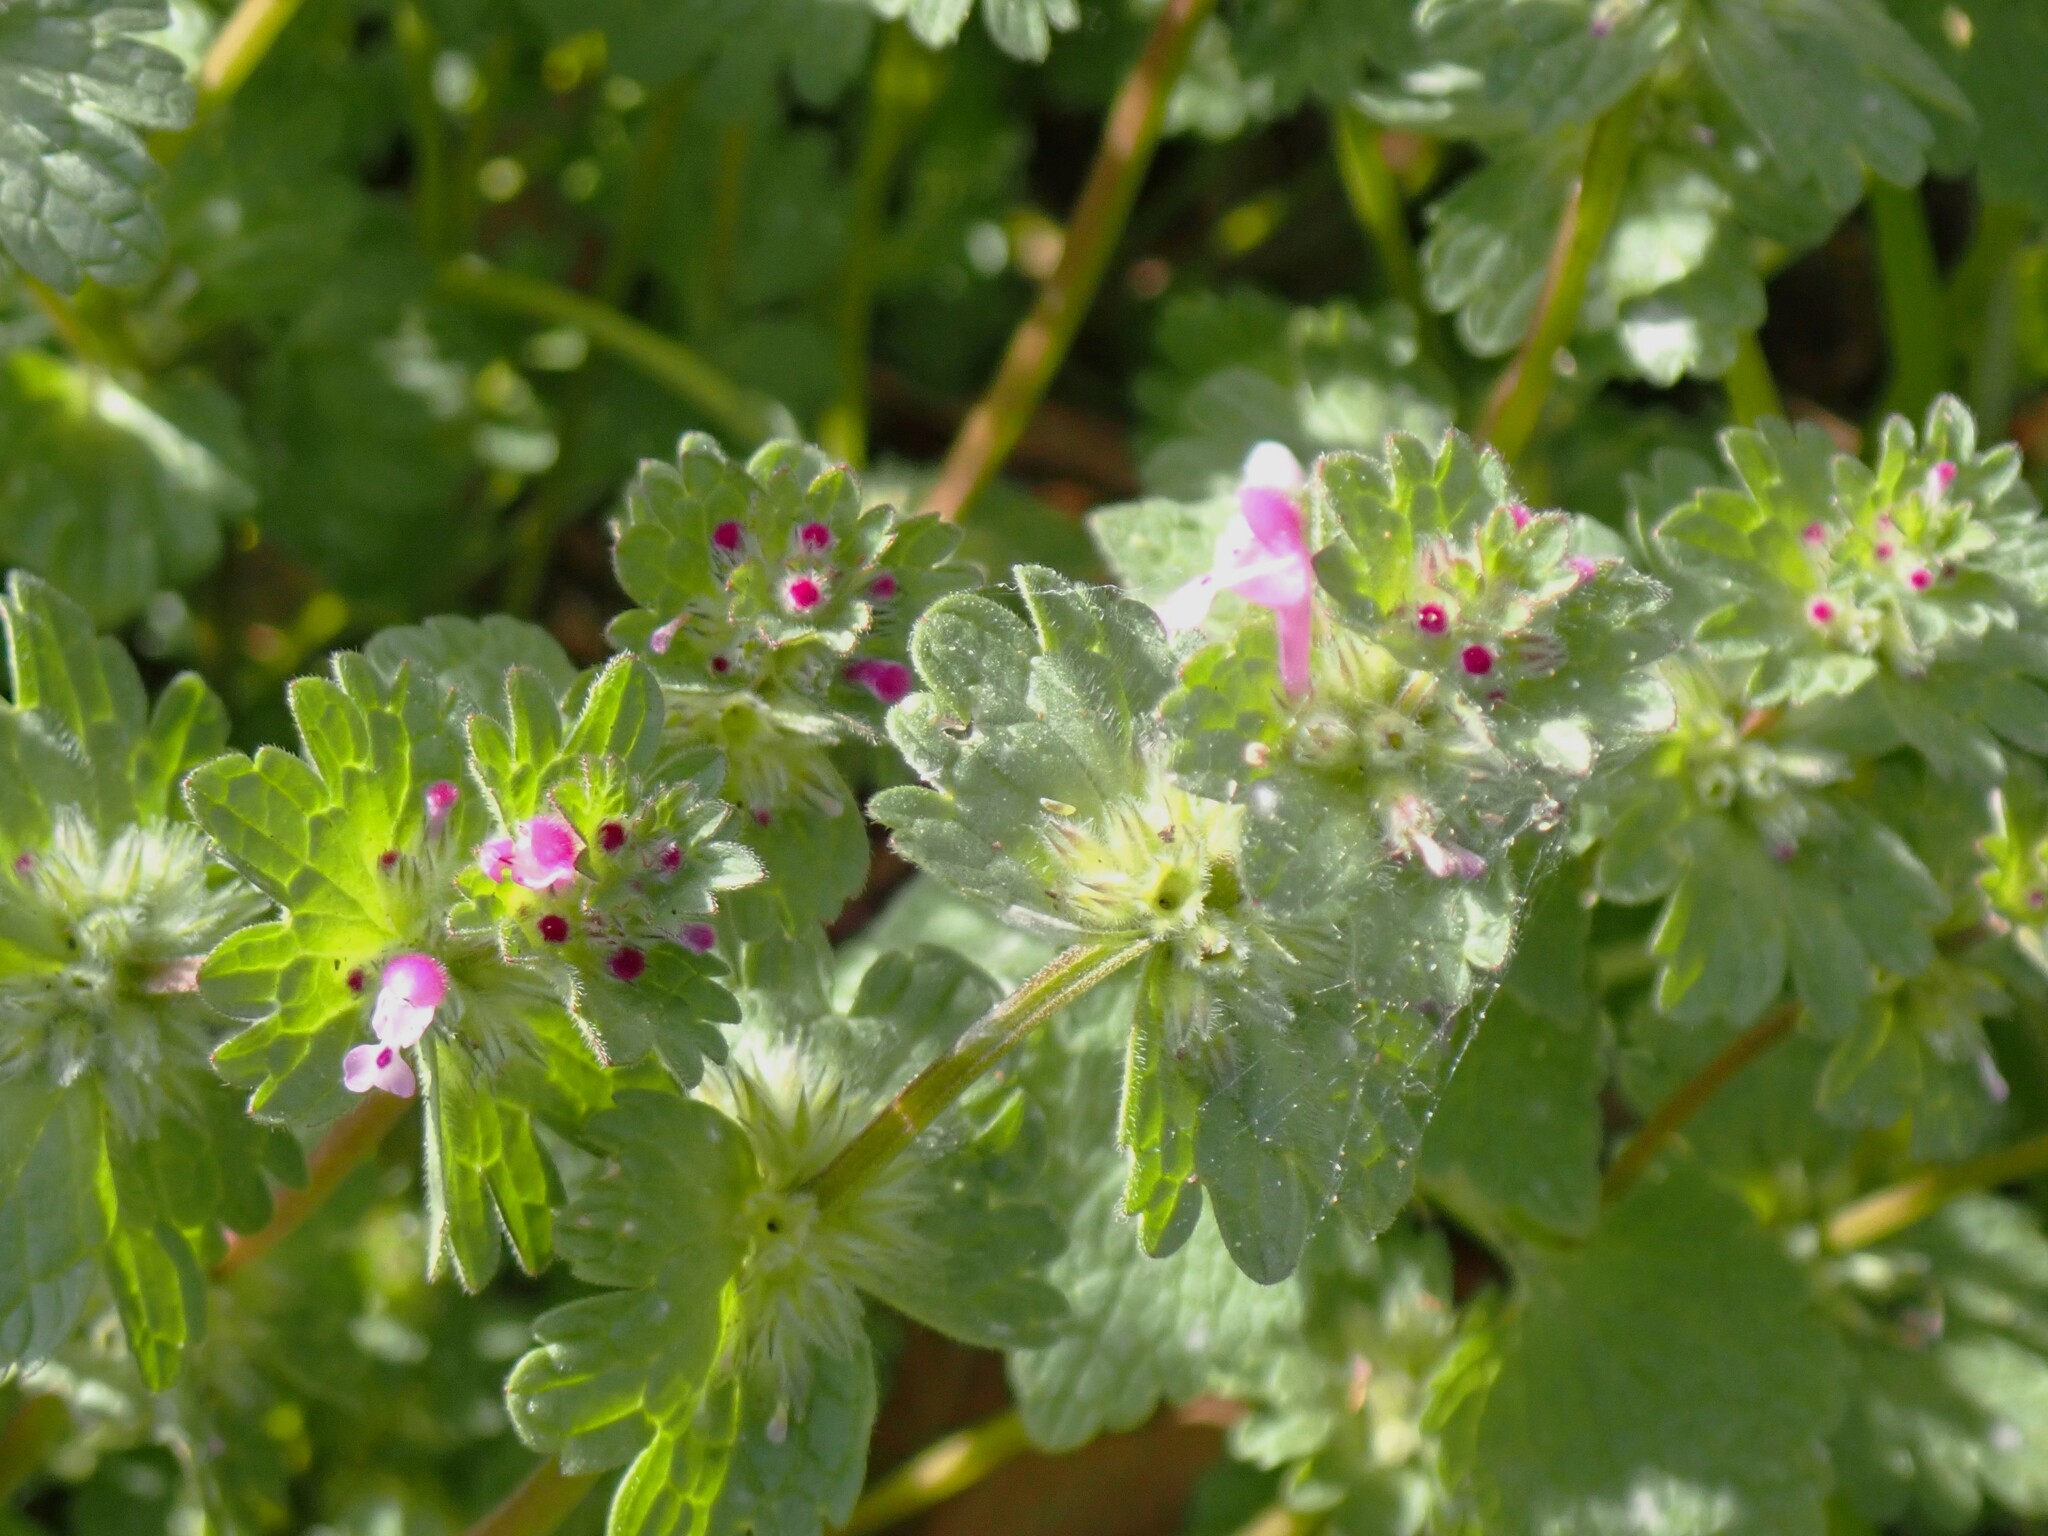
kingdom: Plantae
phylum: Tracheophyta
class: Magnoliopsida
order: Lamiales
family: Lamiaceae
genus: Lamium
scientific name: Lamium amplexicaule
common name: Henbit dead-nettle
